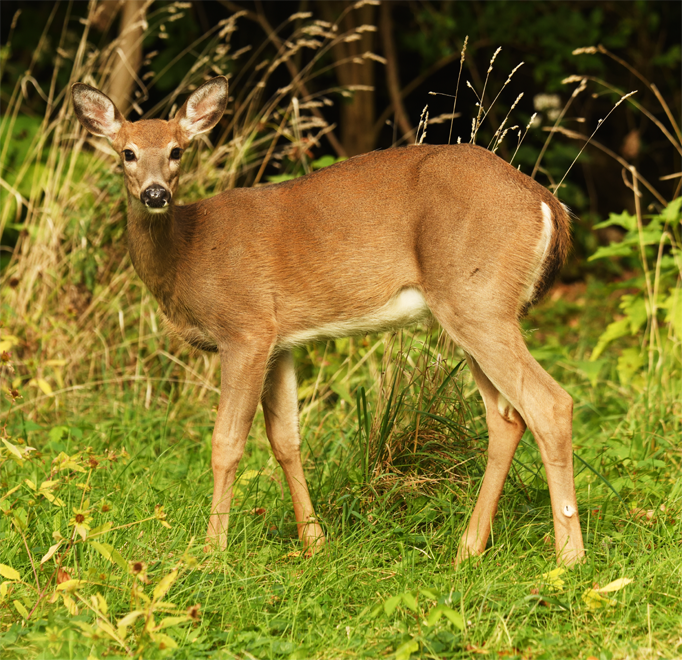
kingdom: Animalia
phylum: Chordata
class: Mammalia
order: Artiodactyla
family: Cervidae
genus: Odocoileus
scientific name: Odocoileus virginianus
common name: White-tailed deer
